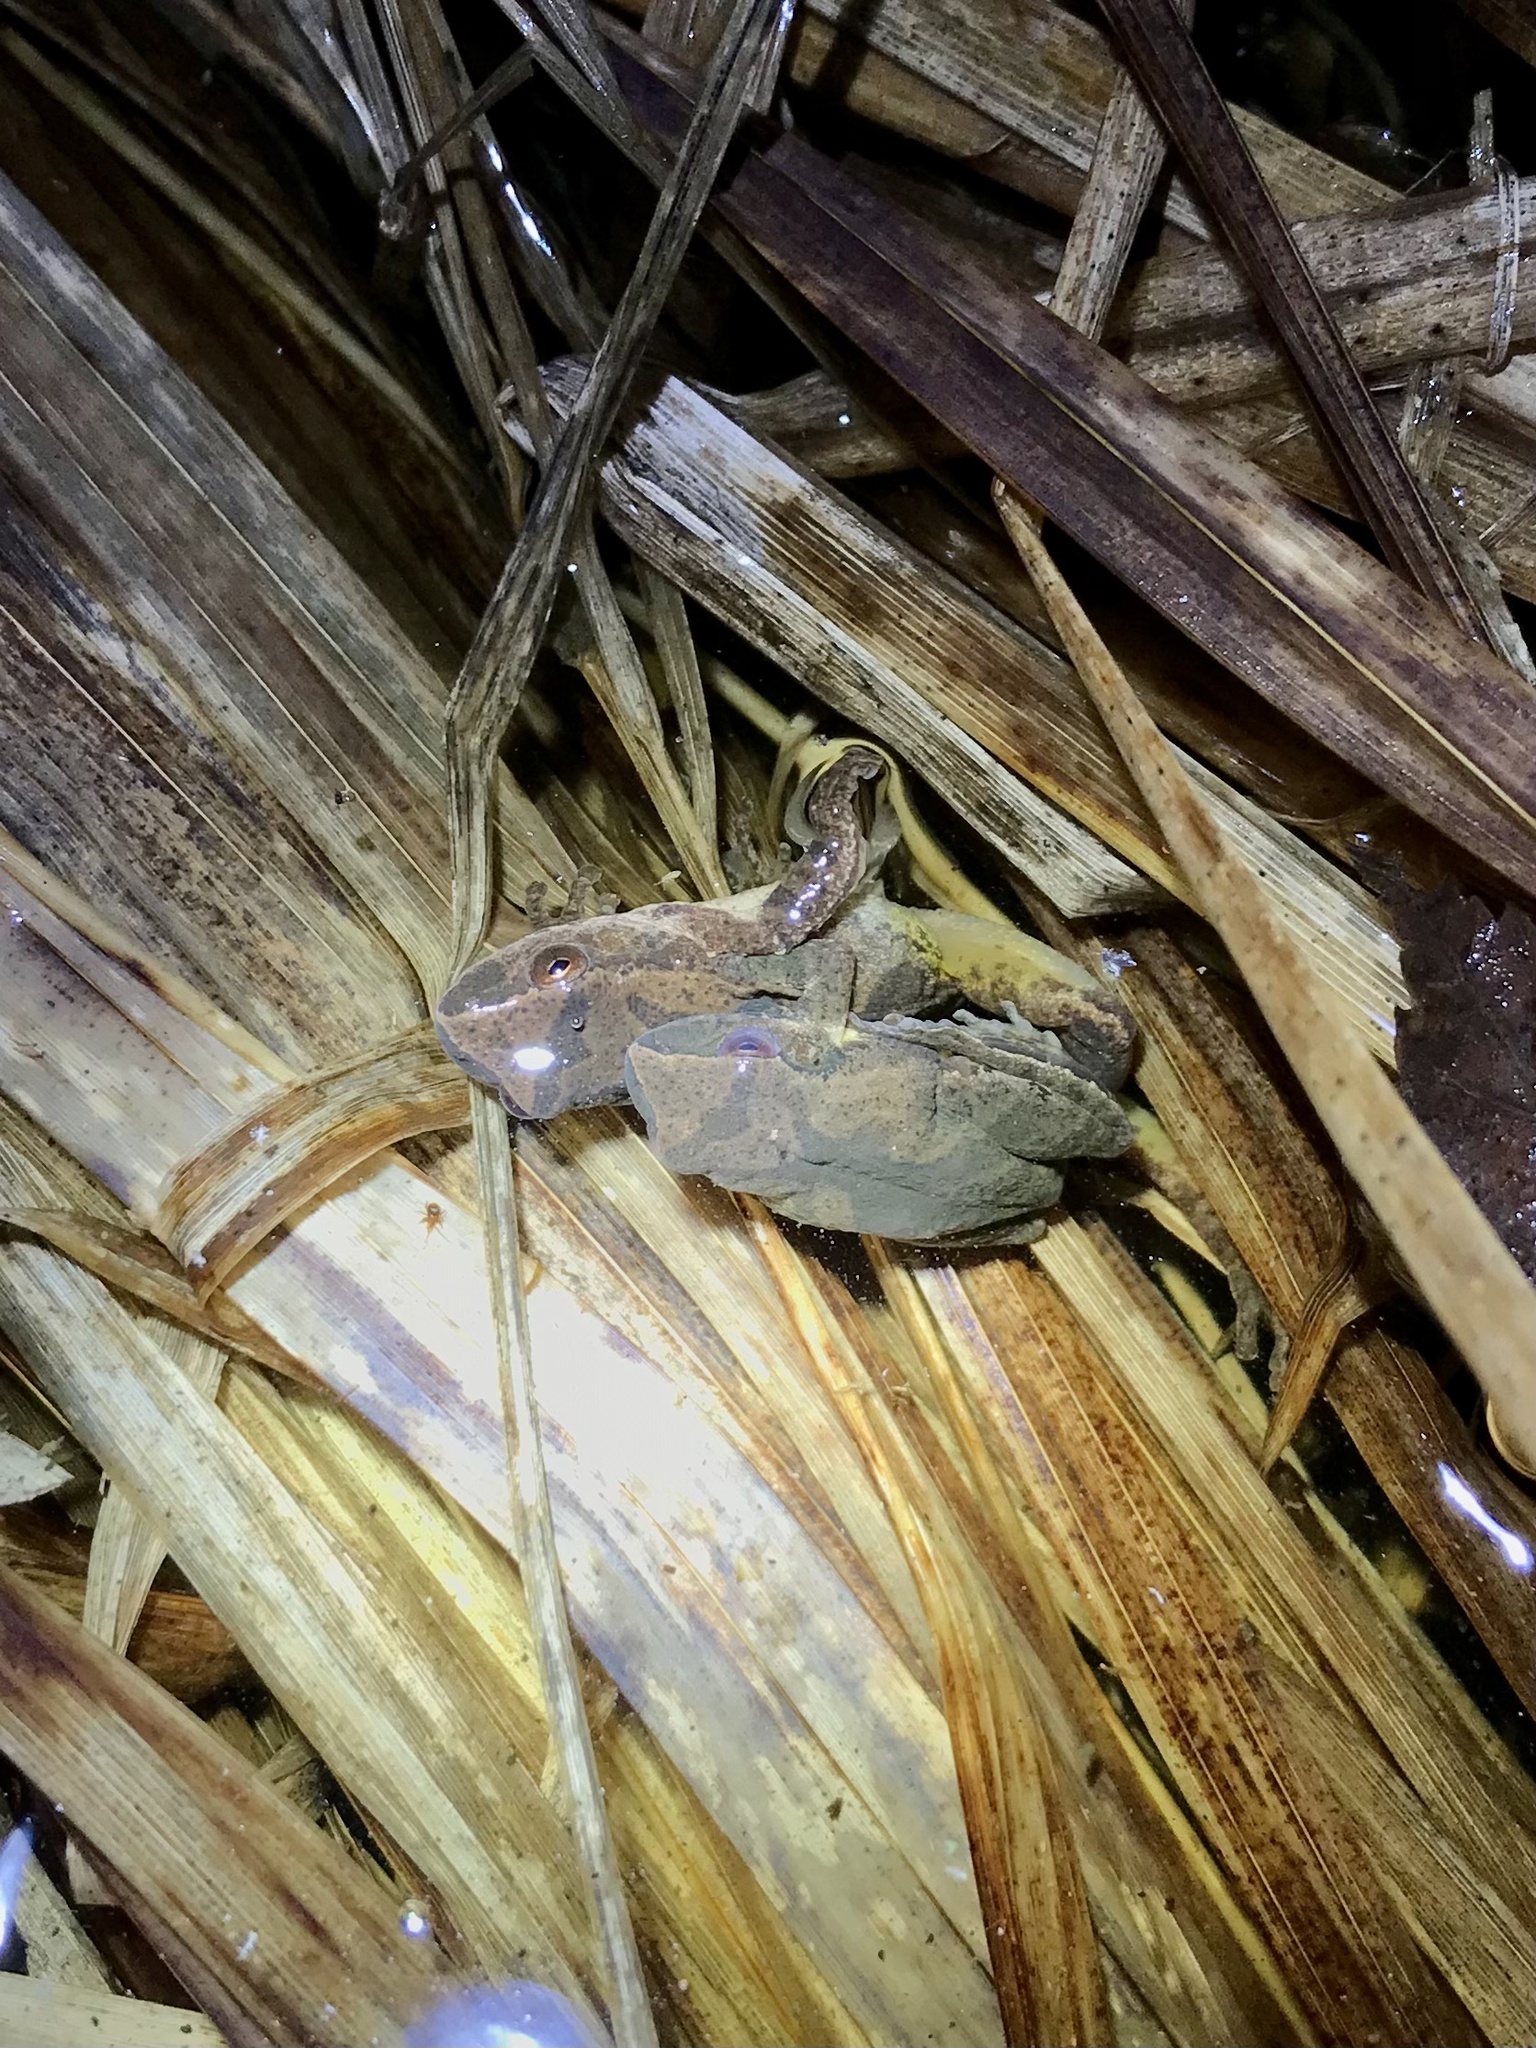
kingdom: Animalia
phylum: Chordata
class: Amphibia
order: Anura
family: Hylidae
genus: Pseudacris
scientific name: Pseudacris crucifer
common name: Spring peeper
